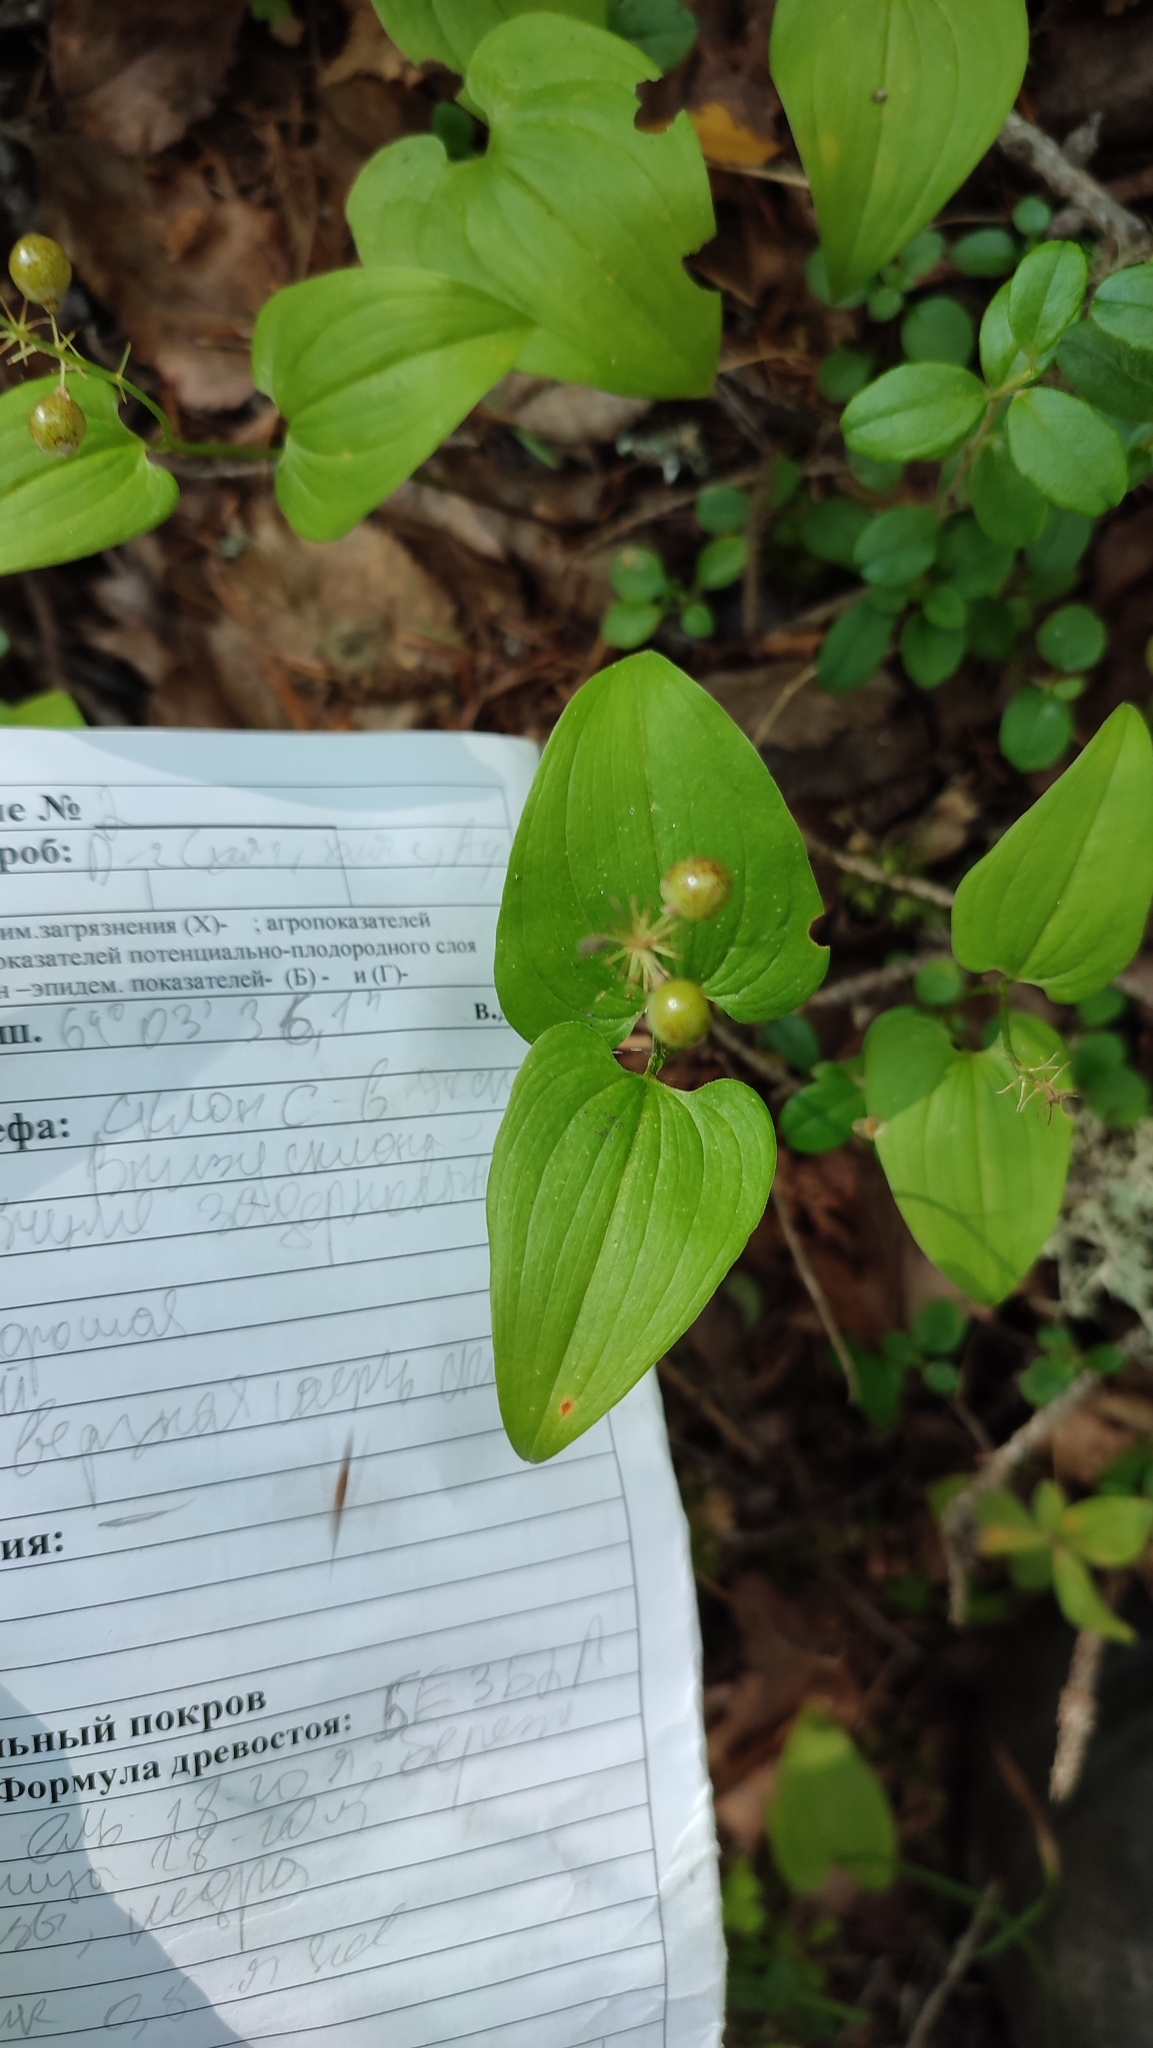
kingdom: Plantae
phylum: Tracheophyta
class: Liliopsida
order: Asparagales
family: Asparagaceae
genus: Maianthemum
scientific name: Maianthemum bifolium
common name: May lily
